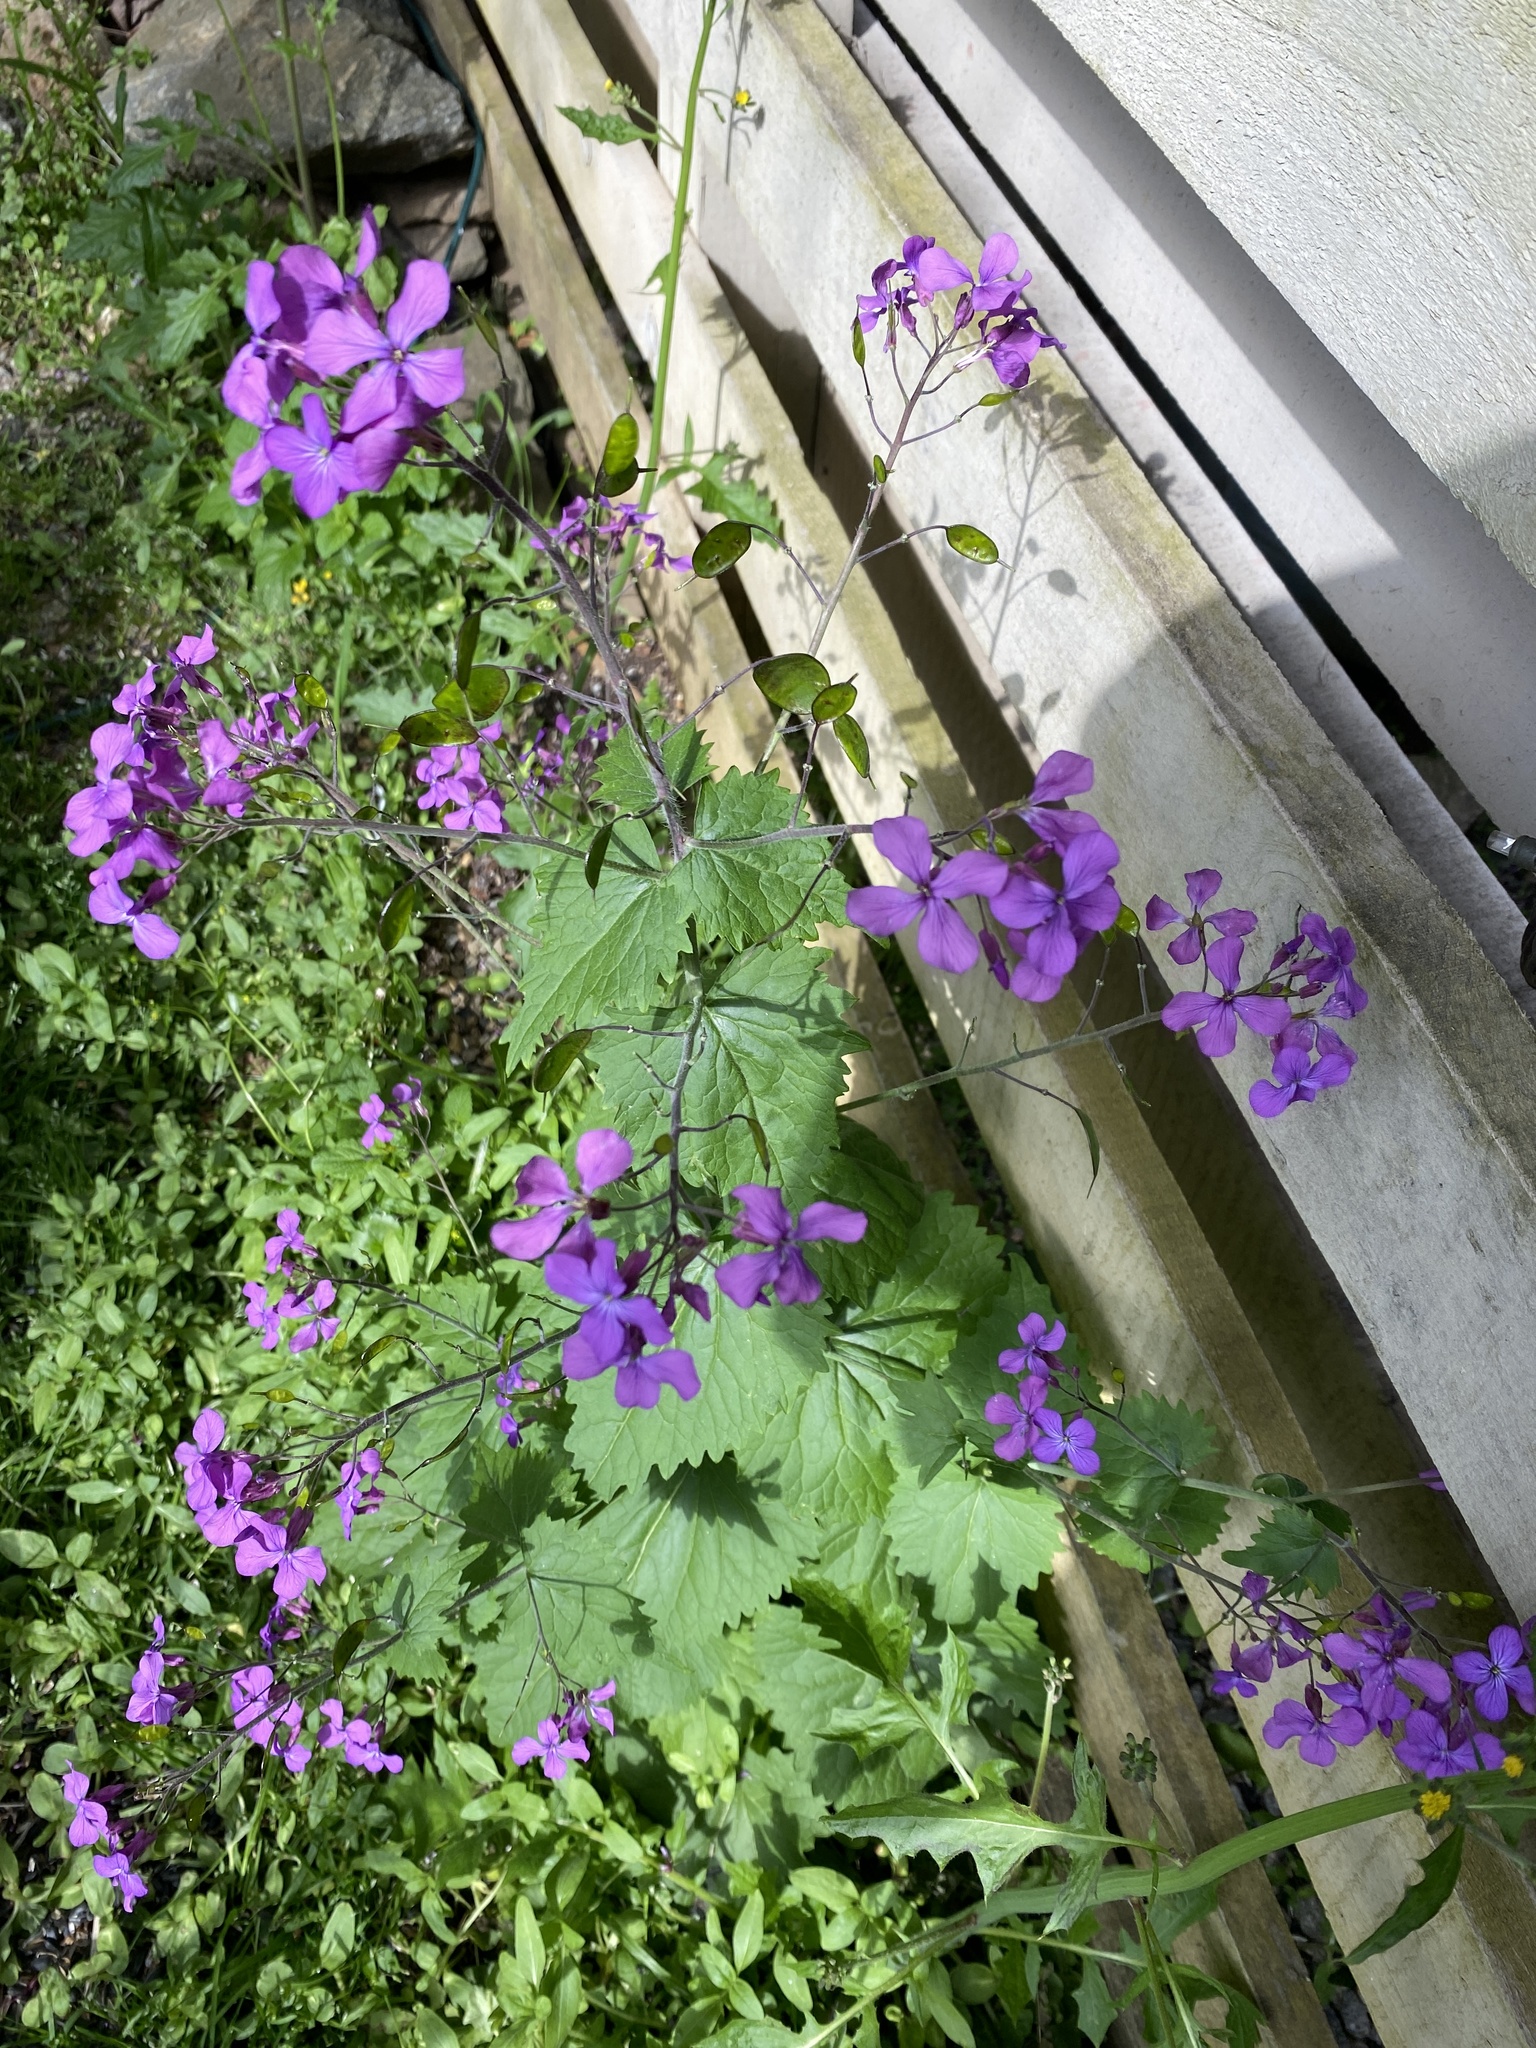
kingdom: Plantae
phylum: Tracheophyta
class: Magnoliopsida
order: Brassicales
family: Brassicaceae
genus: Lunaria
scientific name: Lunaria annua
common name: Honesty
